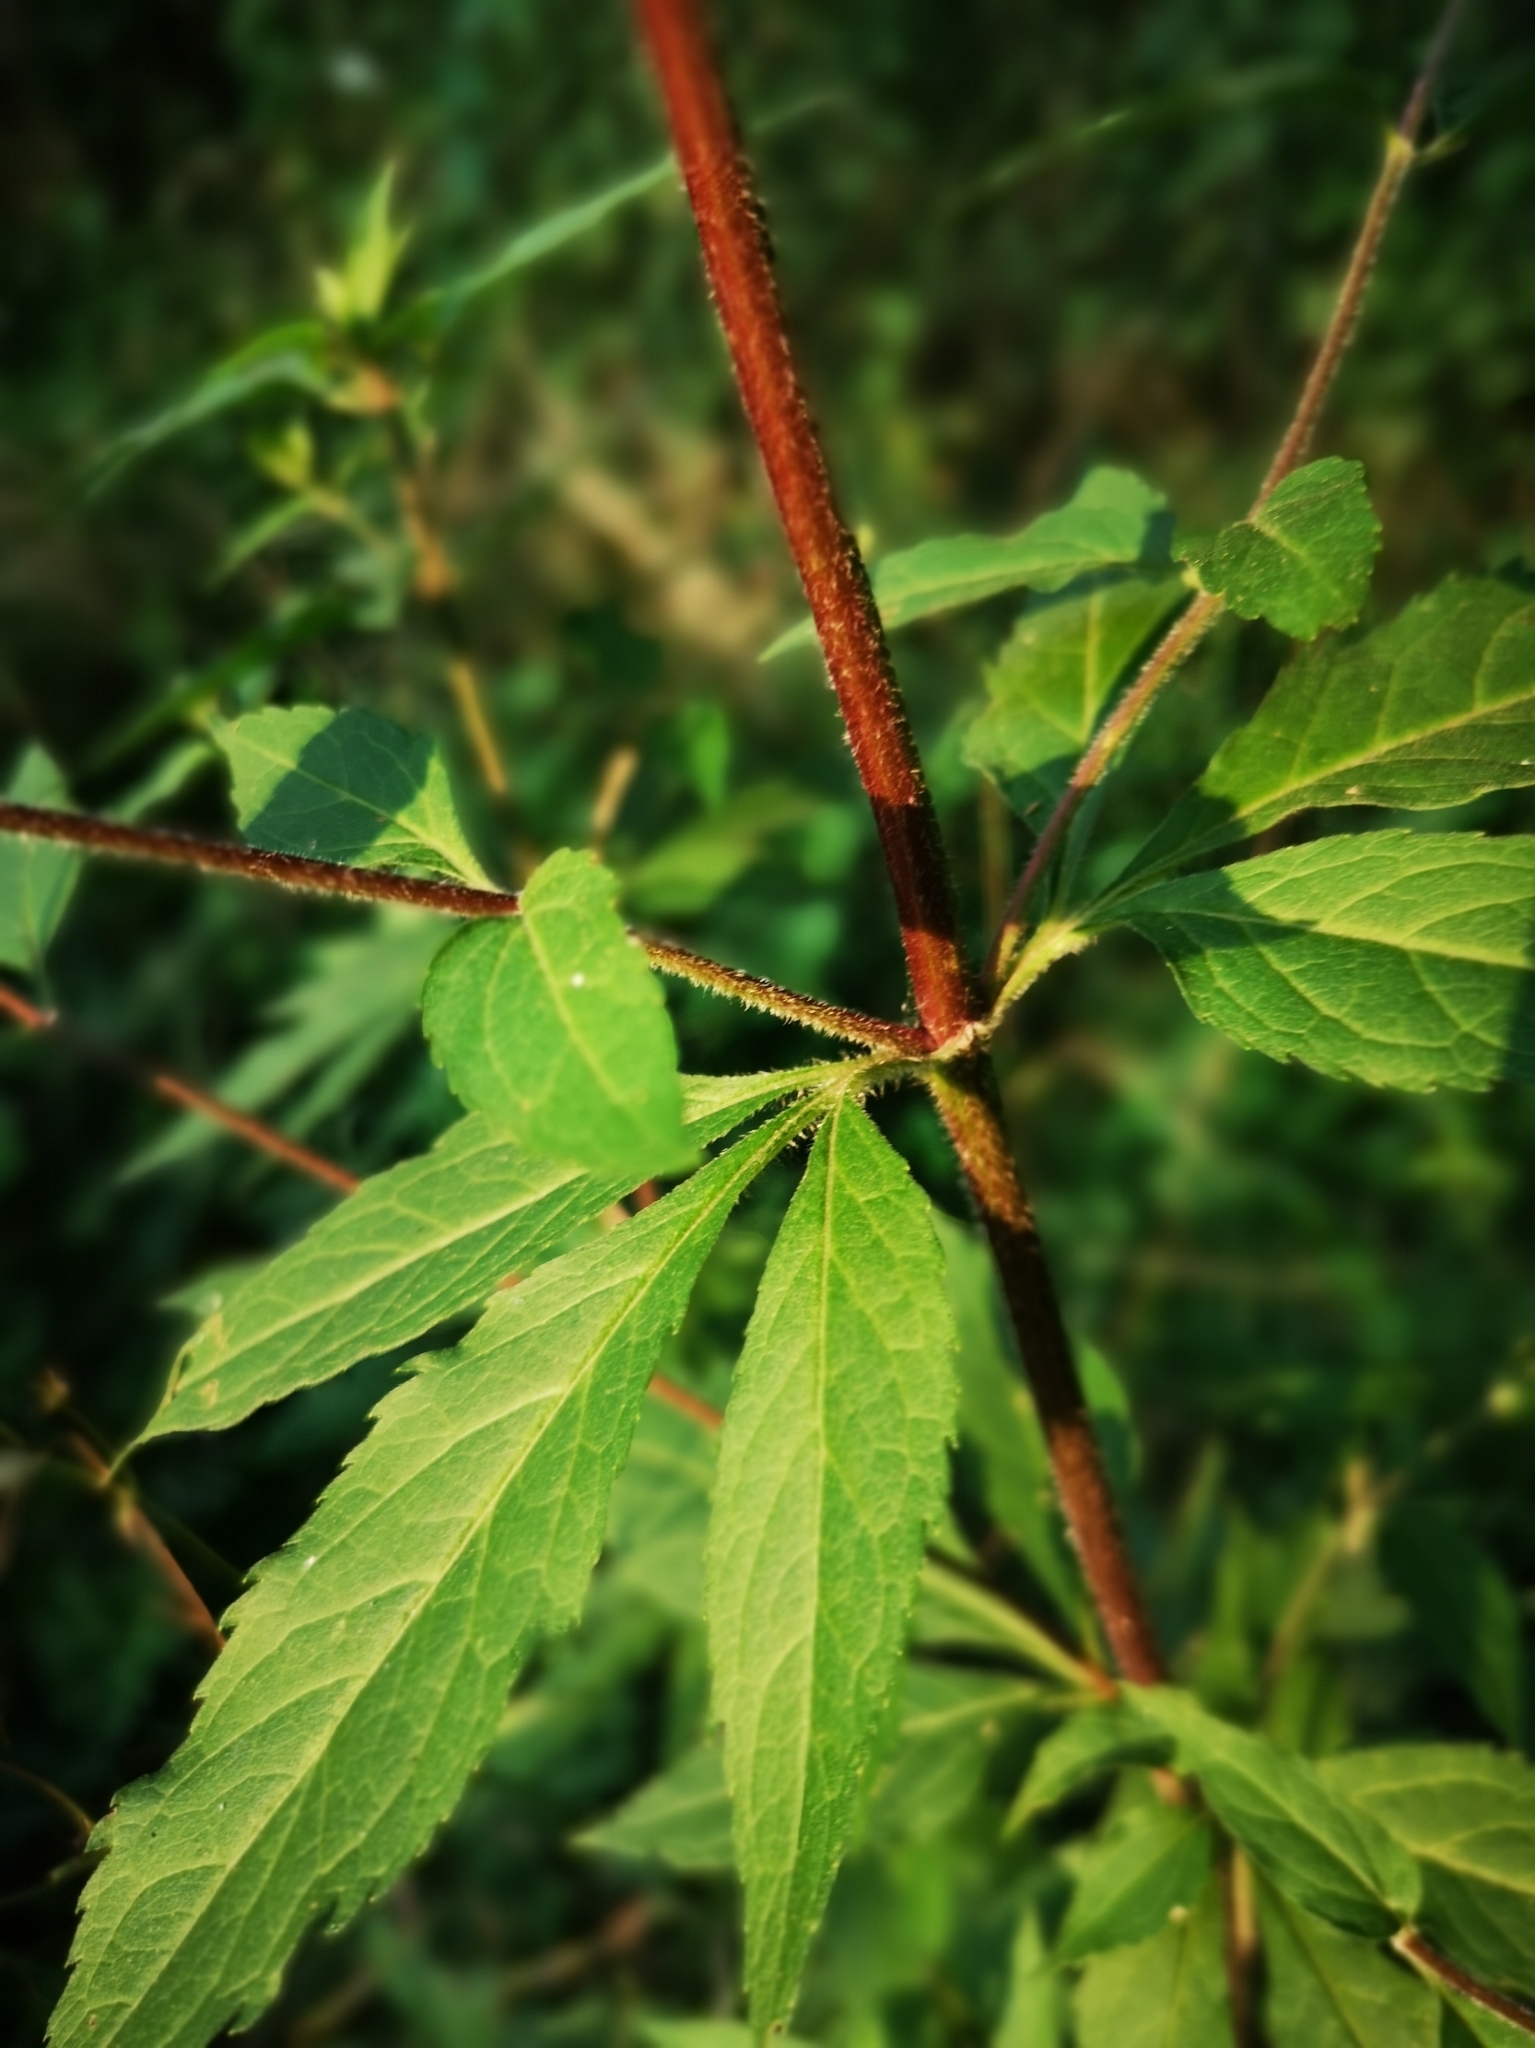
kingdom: Plantae
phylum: Tracheophyta
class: Magnoliopsida
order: Asterales
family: Asteraceae
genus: Eupatorium
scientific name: Eupatorium cannabinum
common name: Hemp-agrimony
